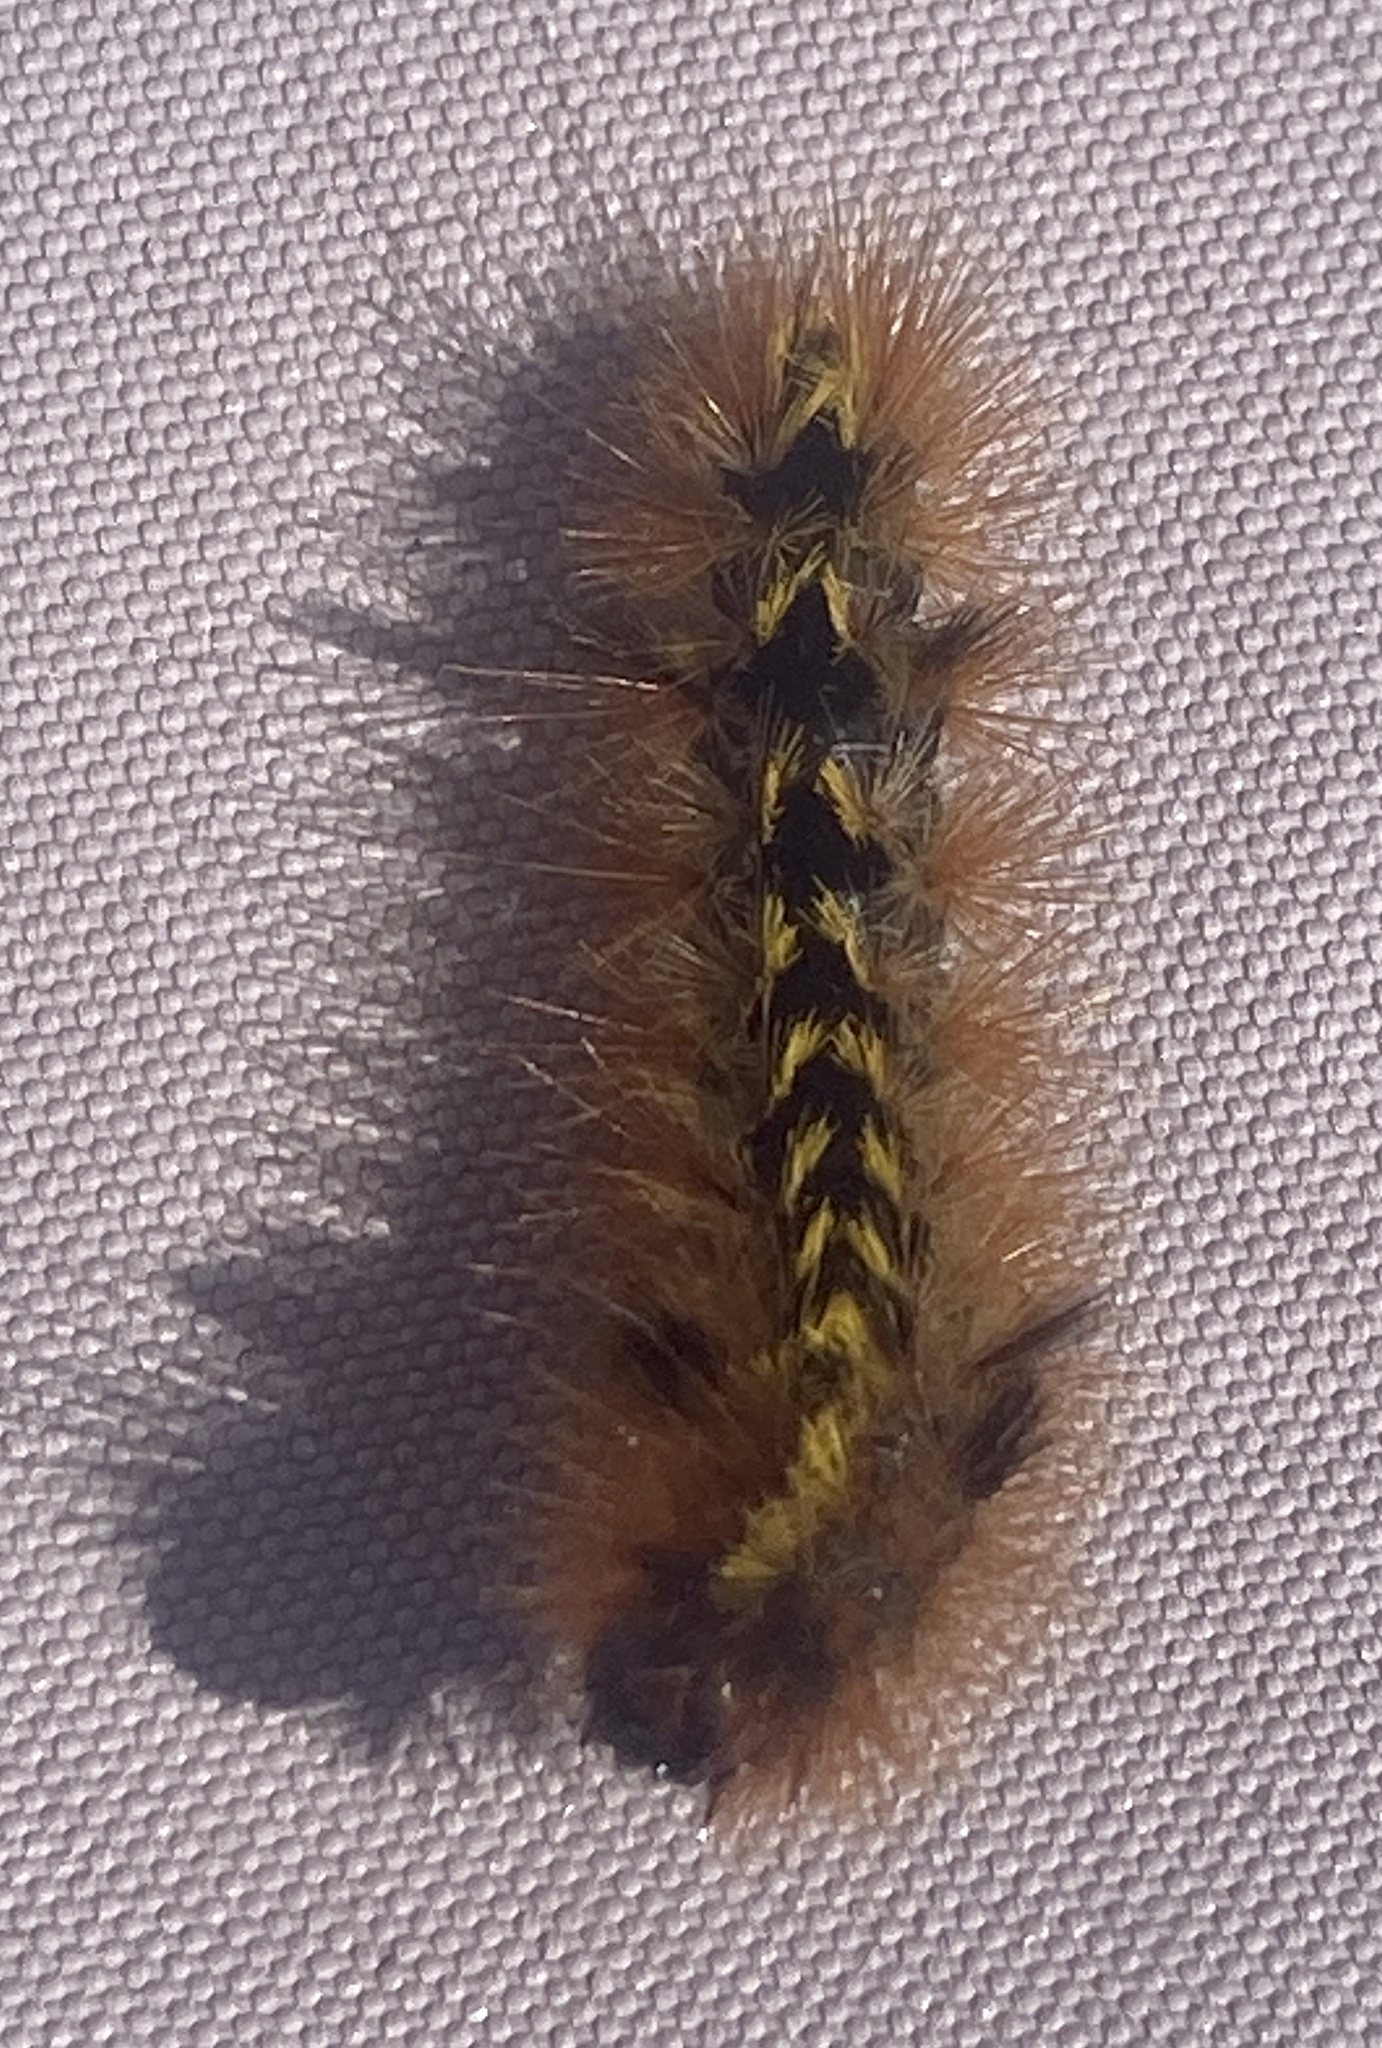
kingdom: Animalia
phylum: Arthropoda
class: Insecta
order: Lepidoptera
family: Erebidae
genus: Lophocampa
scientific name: Lophocampa argentata
